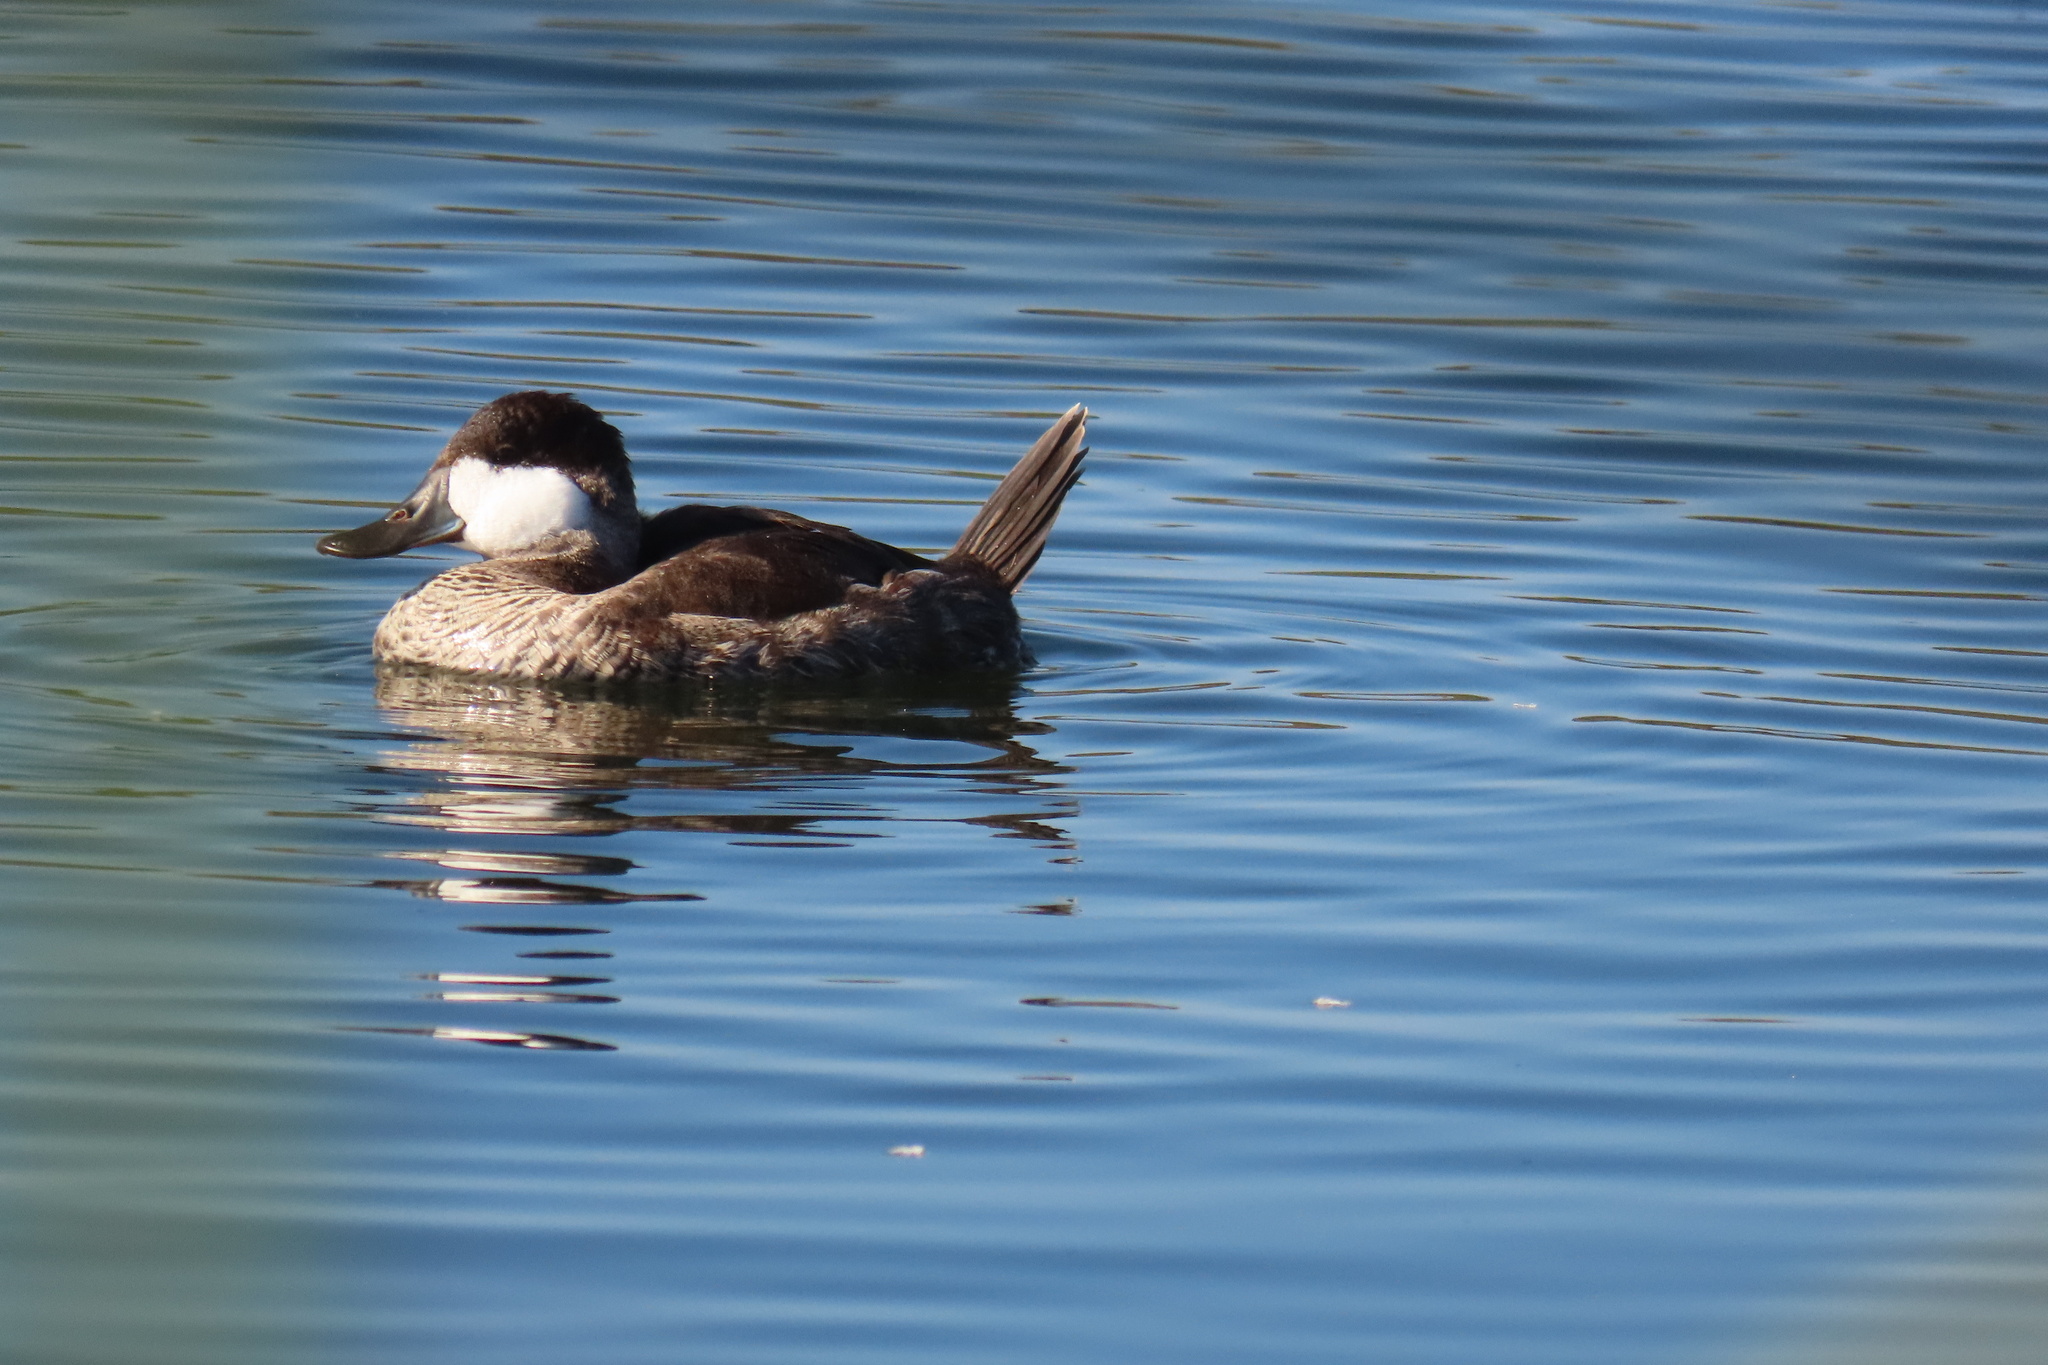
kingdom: Animalia
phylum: Chordata
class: Aves
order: Anseriformes
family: Anatidae
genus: Oxyura
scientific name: Oxyura jamaicensis
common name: Ruddy duck
